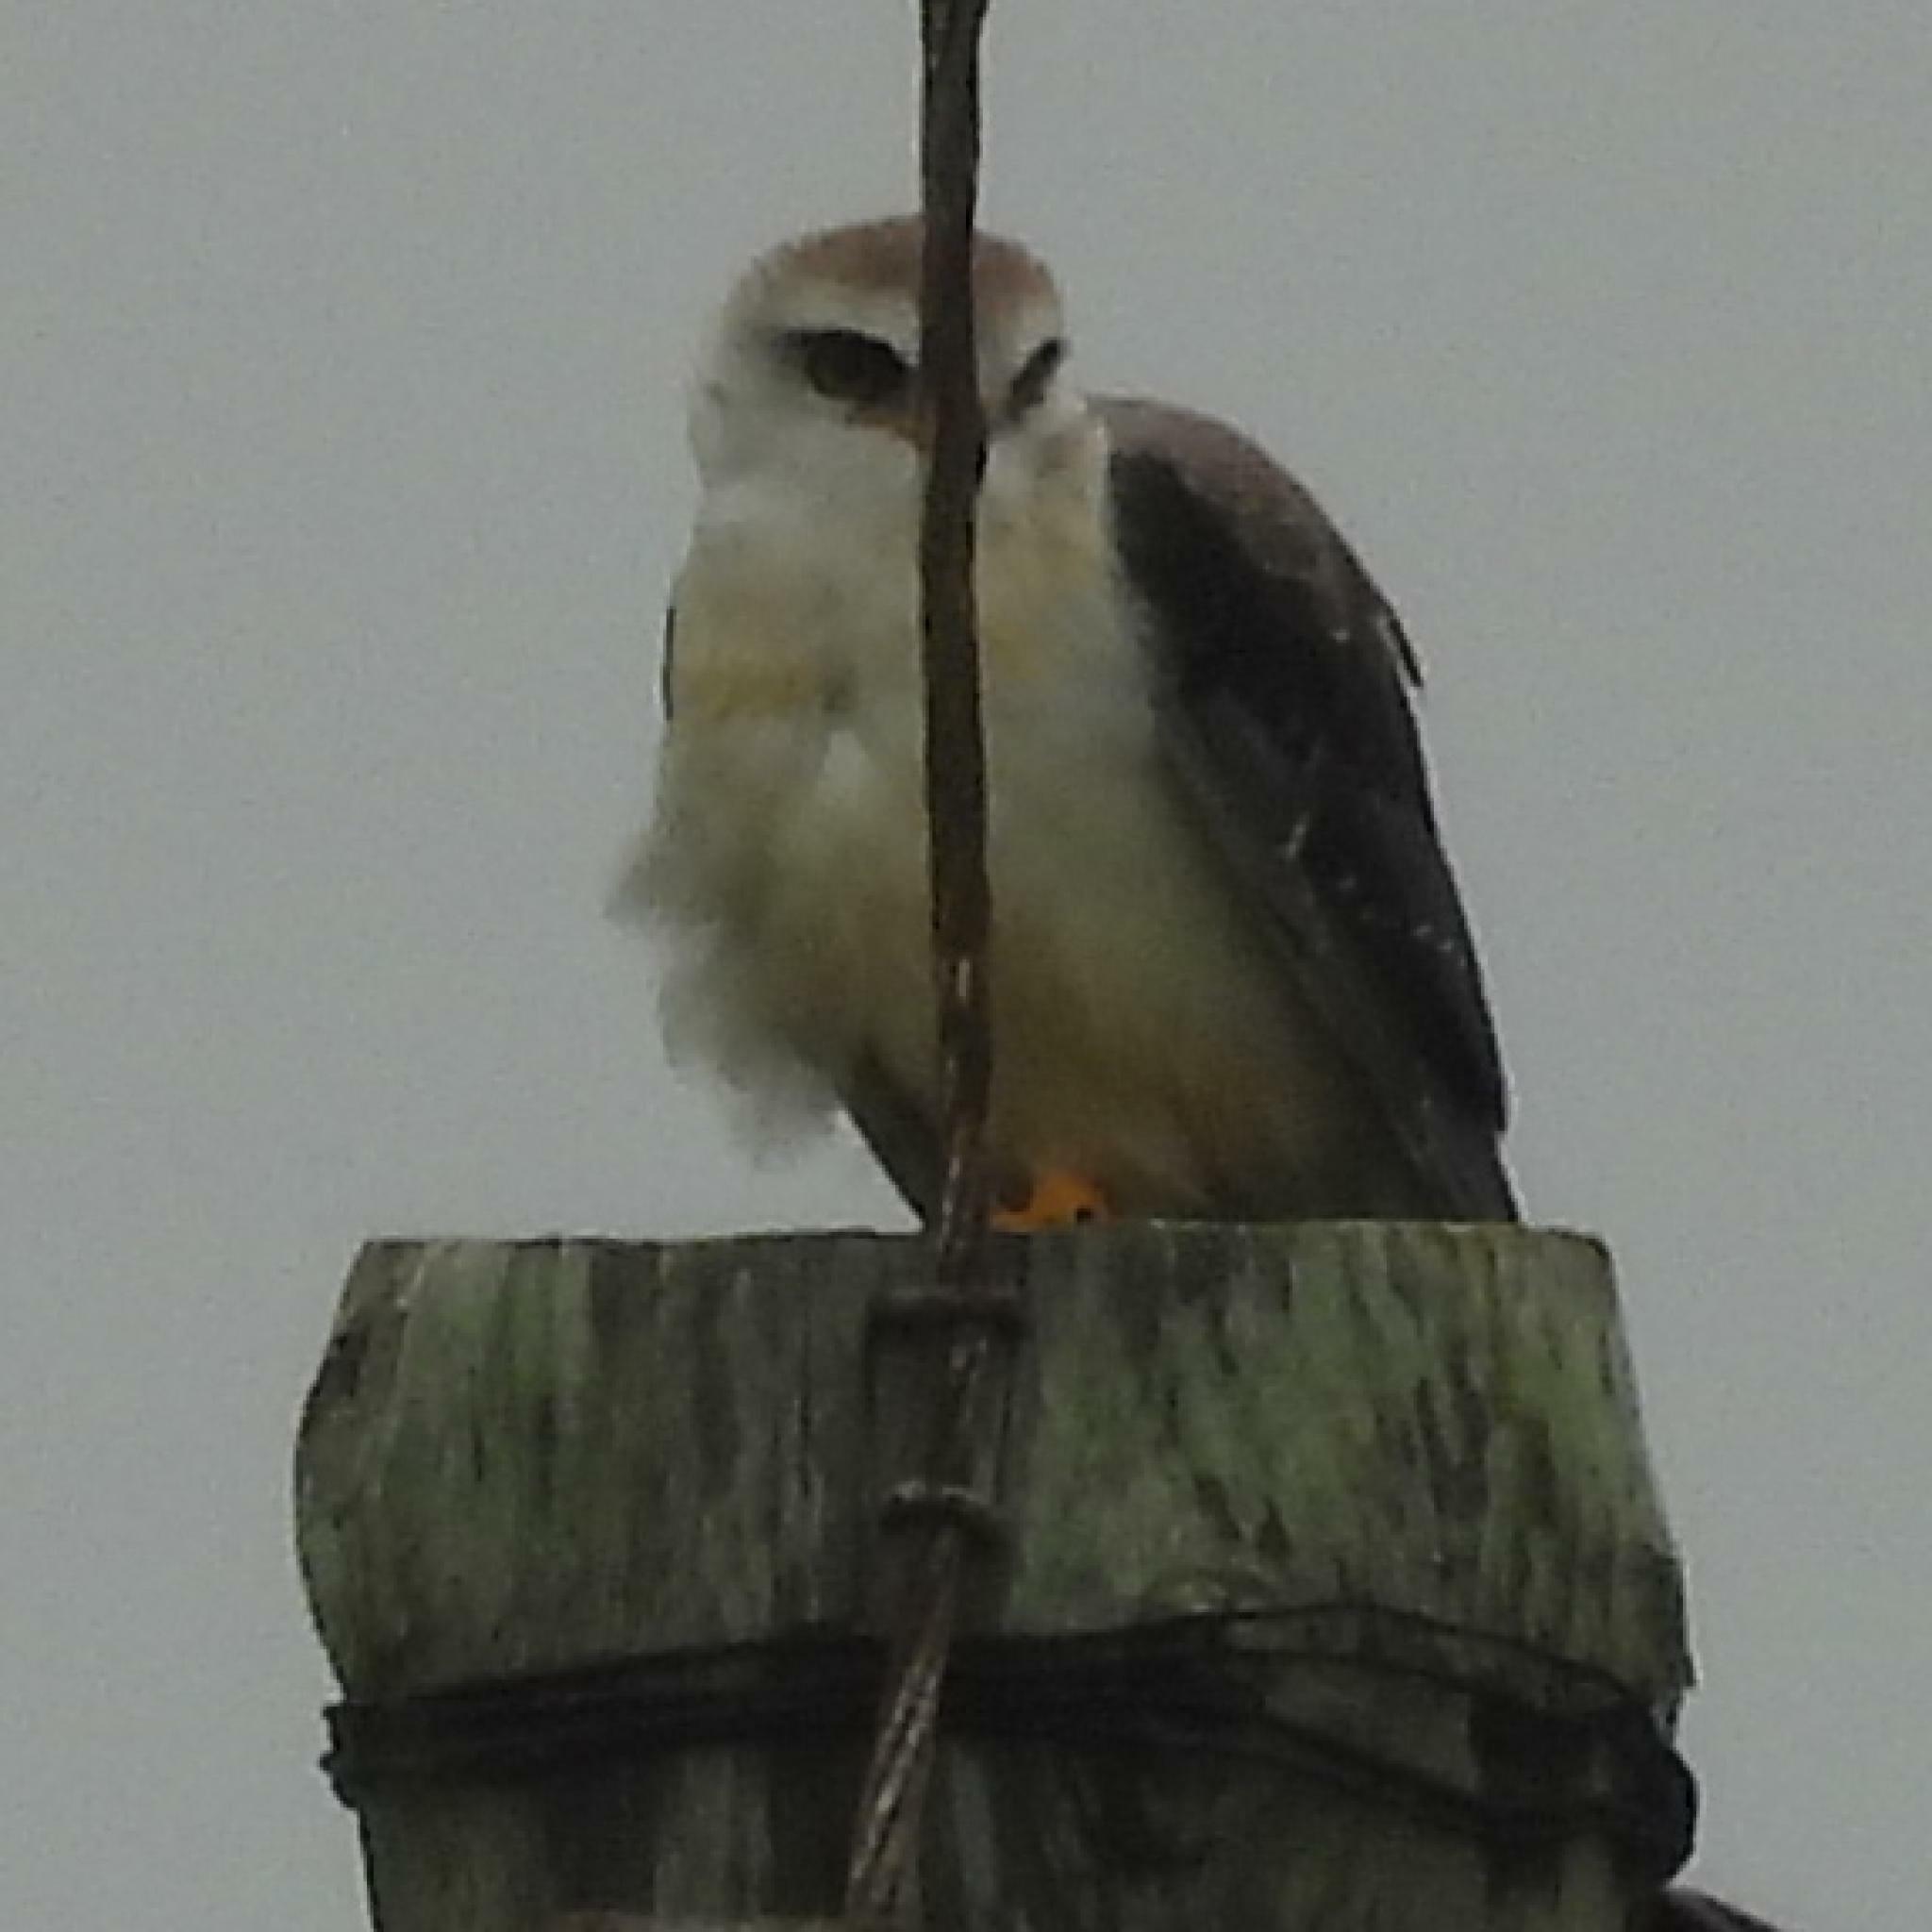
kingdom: Animalia
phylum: Chordata
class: Aves
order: Accipitriformes
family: Accipitridae
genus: Elanus
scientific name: Elanus caeruleus
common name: Black-winged kite
